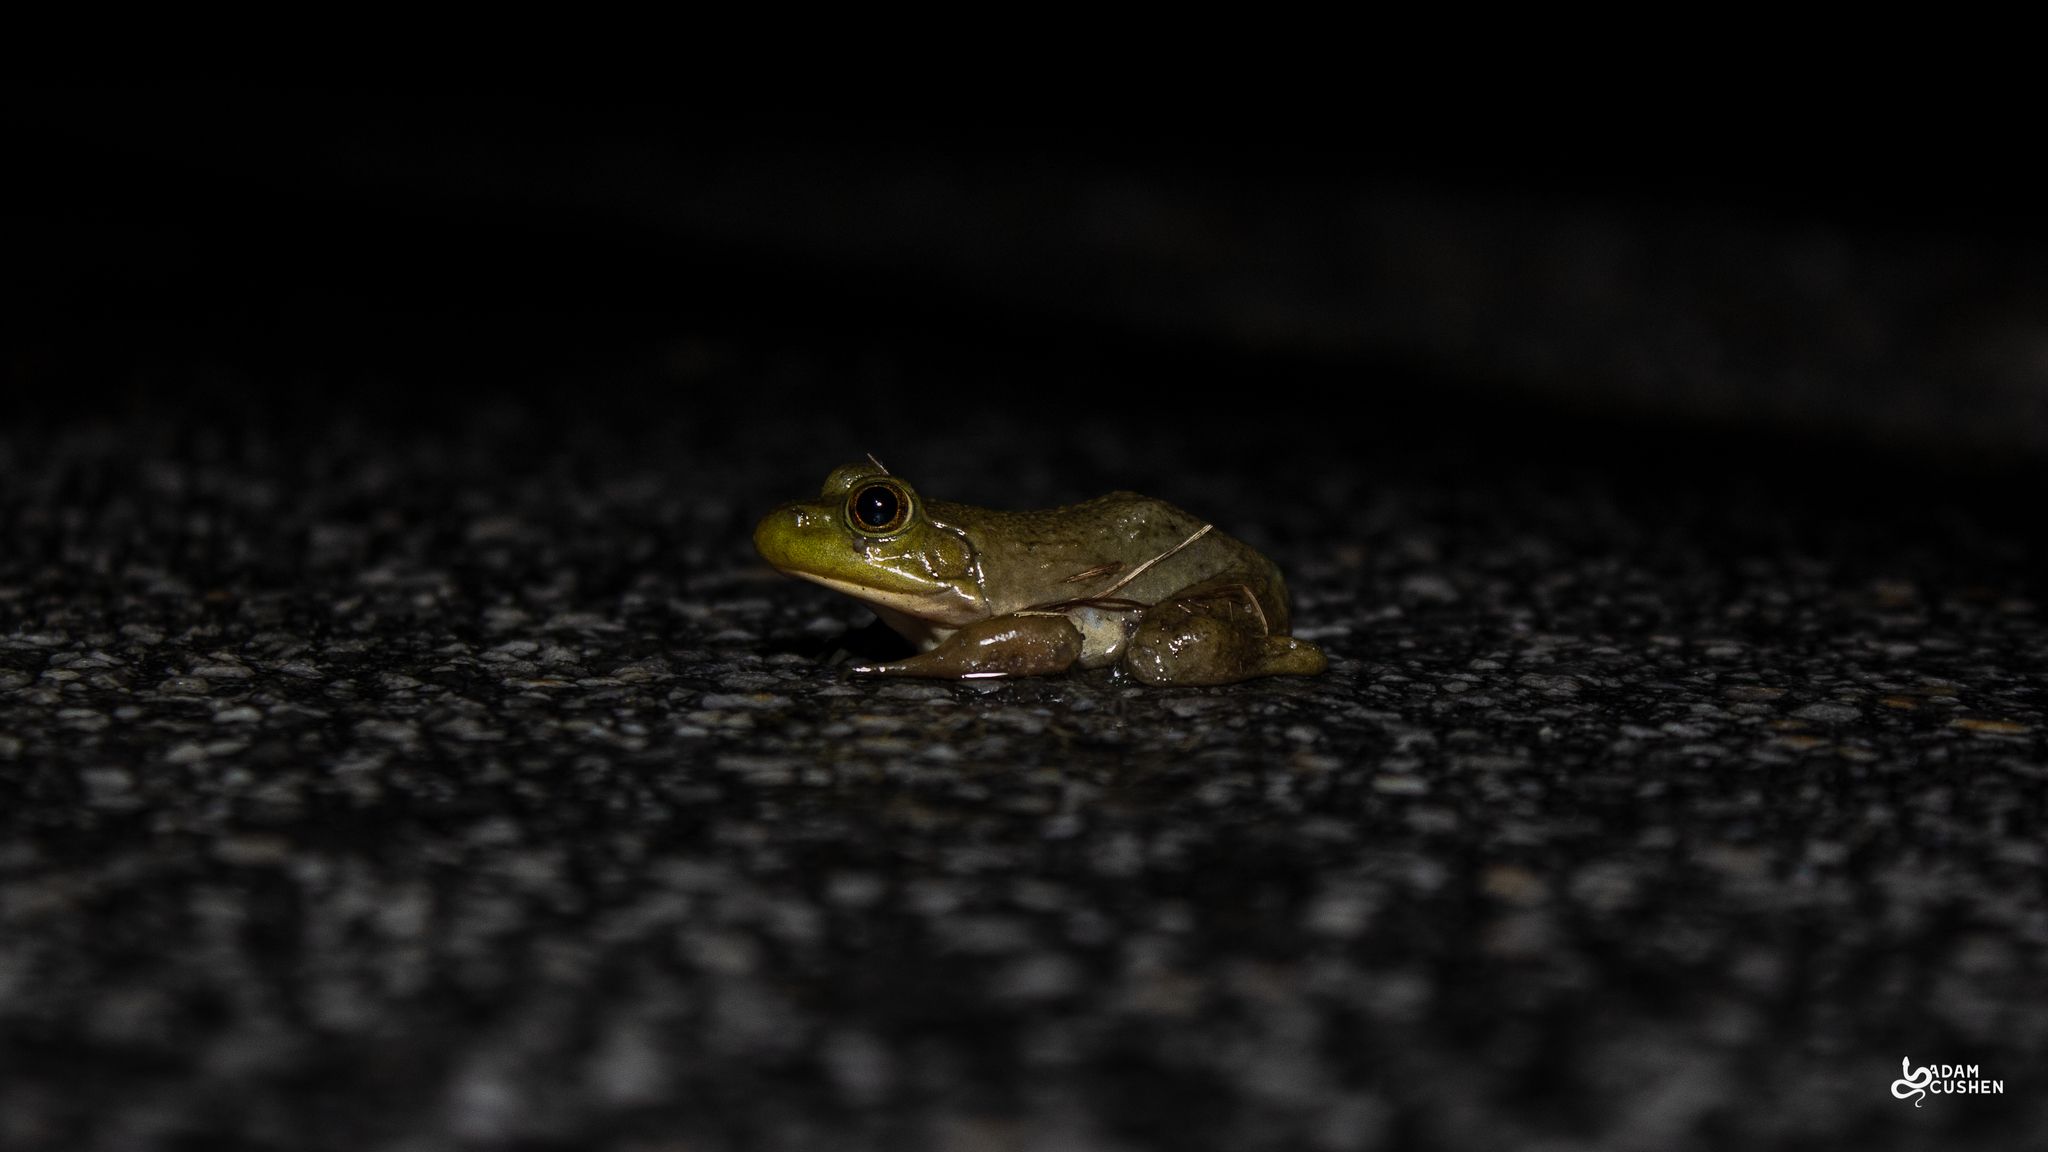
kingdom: Animalia
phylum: Chordata
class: Amphibia
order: Anura
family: Ranidae
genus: Lithobates
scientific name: Lithobates catesbeianus
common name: American bullfrog
